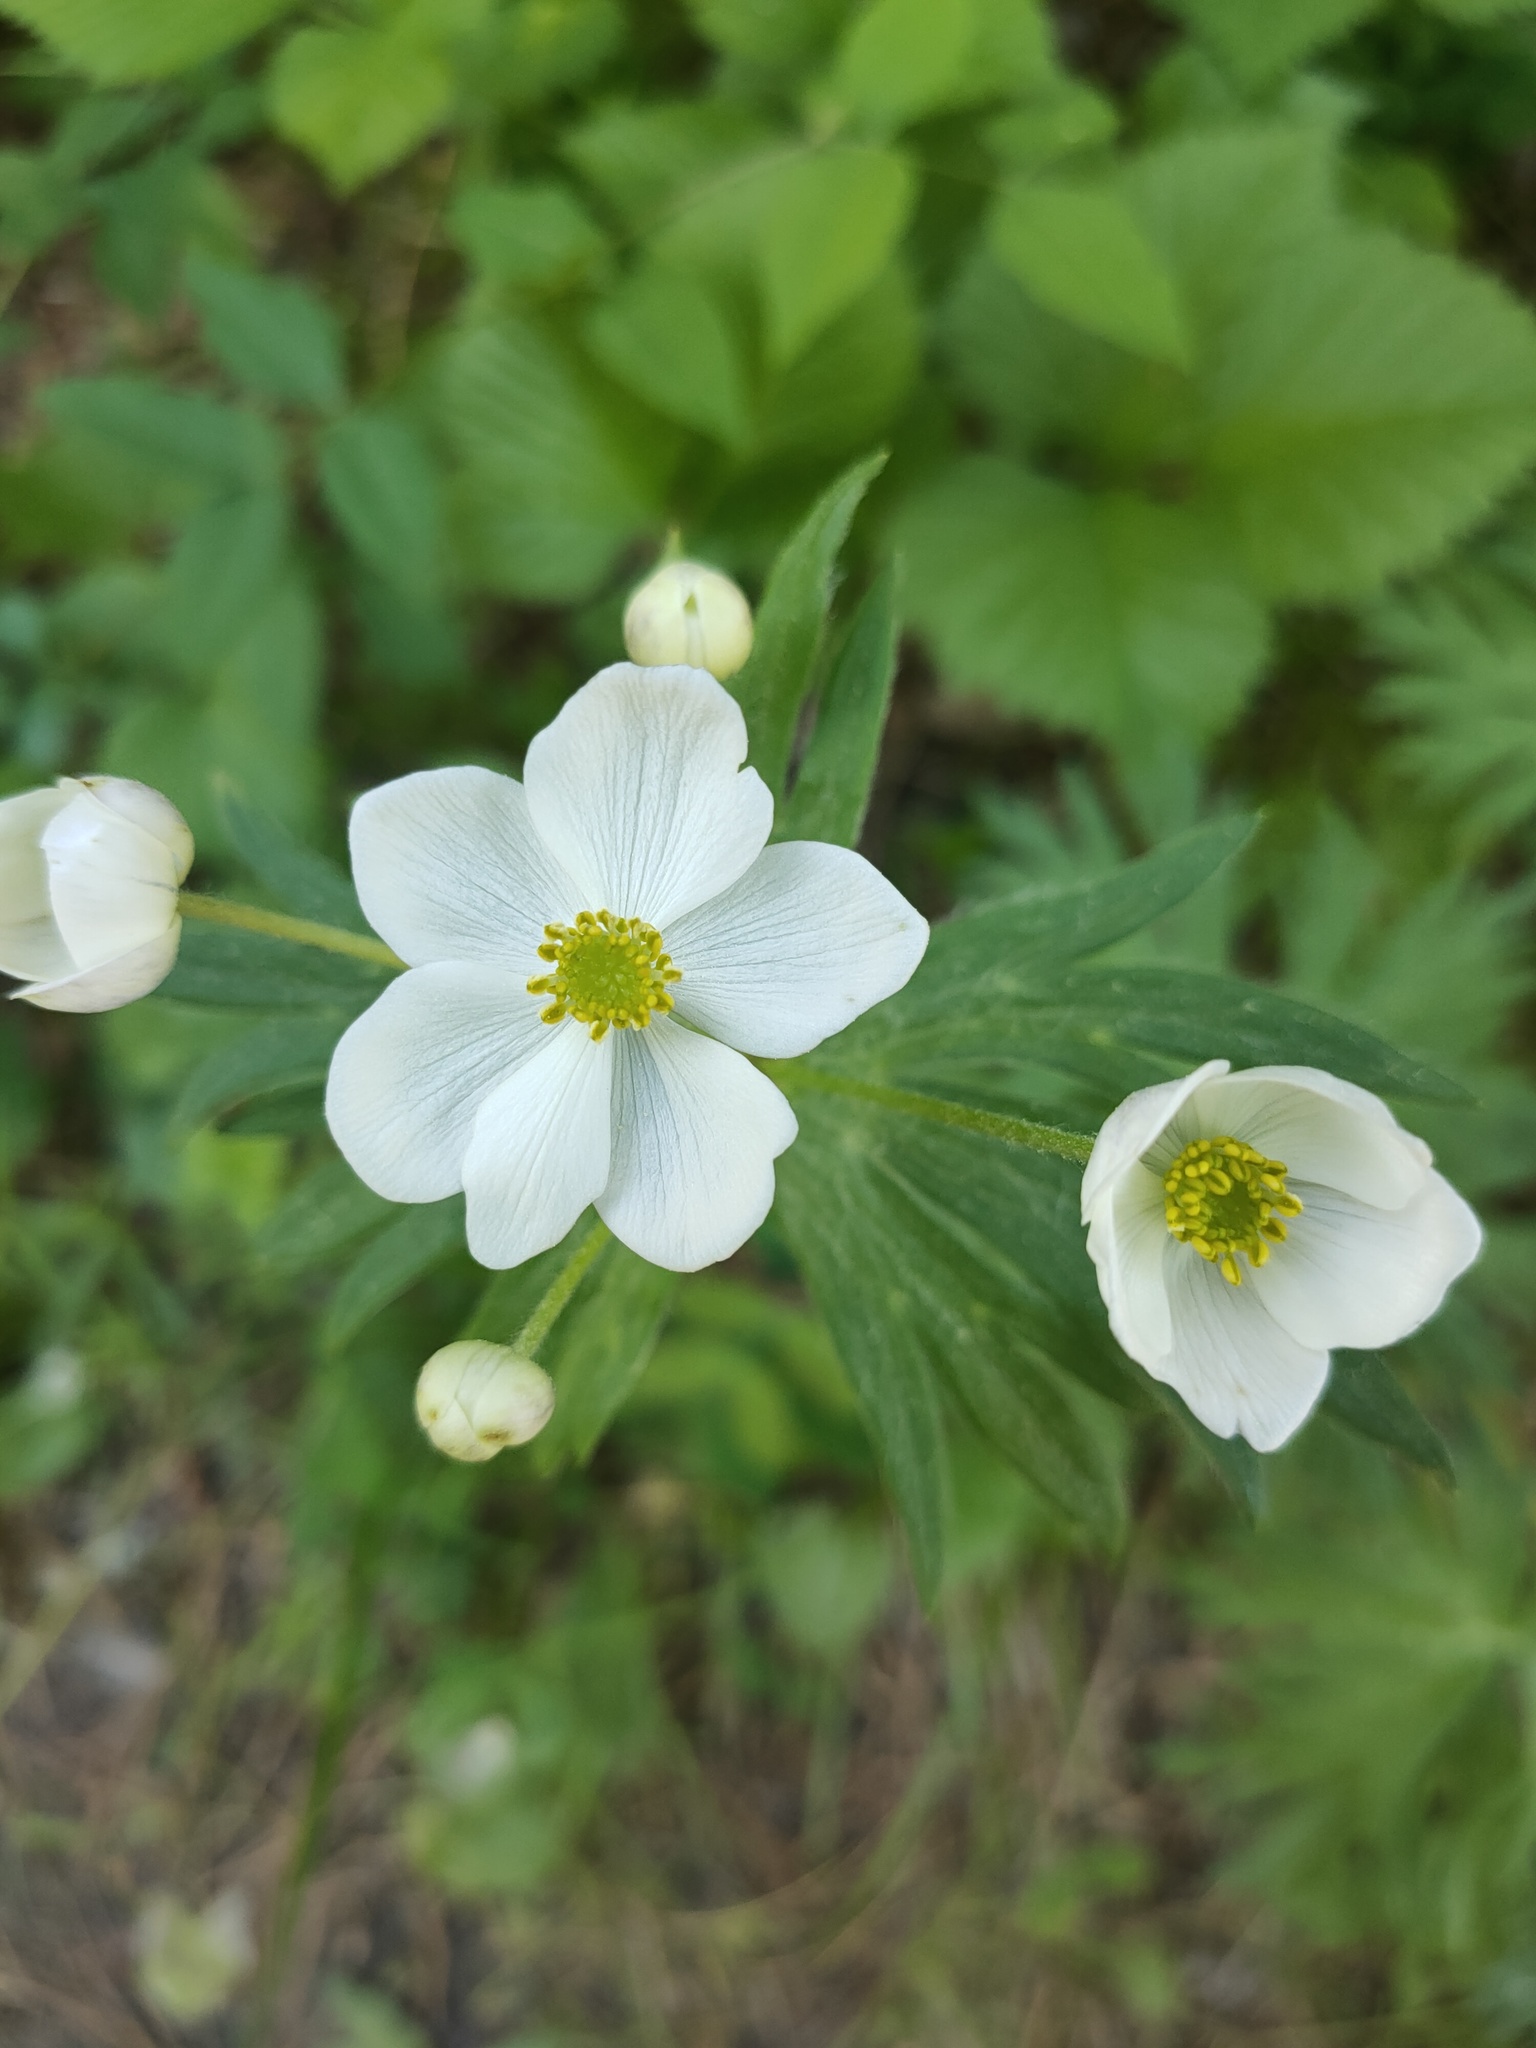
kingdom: Plantae
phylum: Tracheophyta
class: Magnoliopsida
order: Ranunculales
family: Ranunculaceae
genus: Anemonastrum
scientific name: Anemonastrum narcissiflorum
